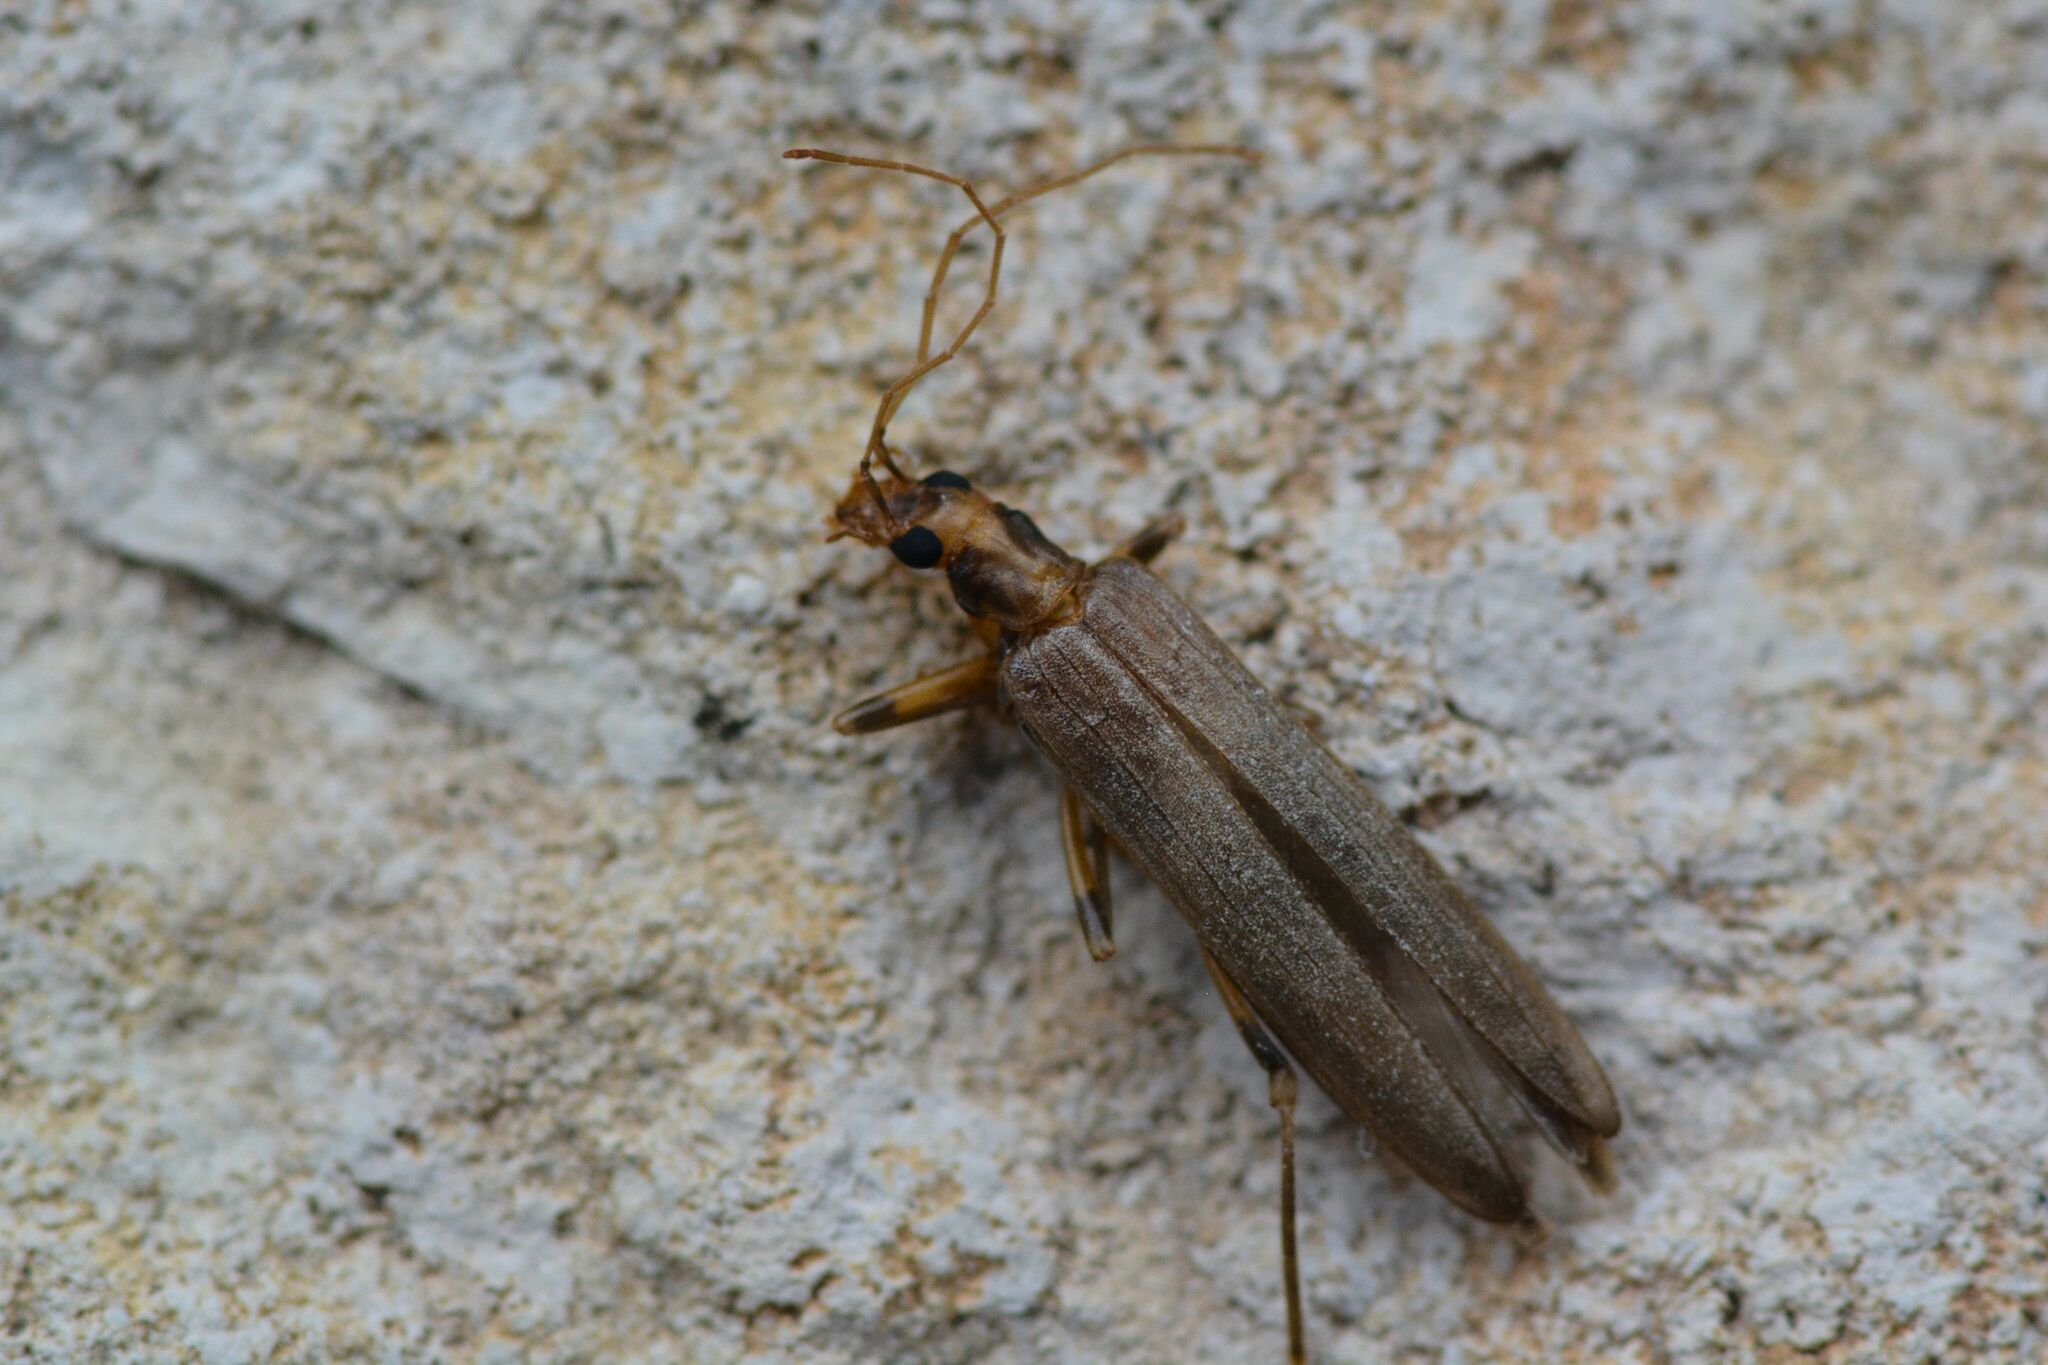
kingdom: Animalia
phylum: Arthropoda
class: Insecta
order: Coleoptera
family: Oedemeridae
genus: Oedemera
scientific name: Oedemera femoralis
